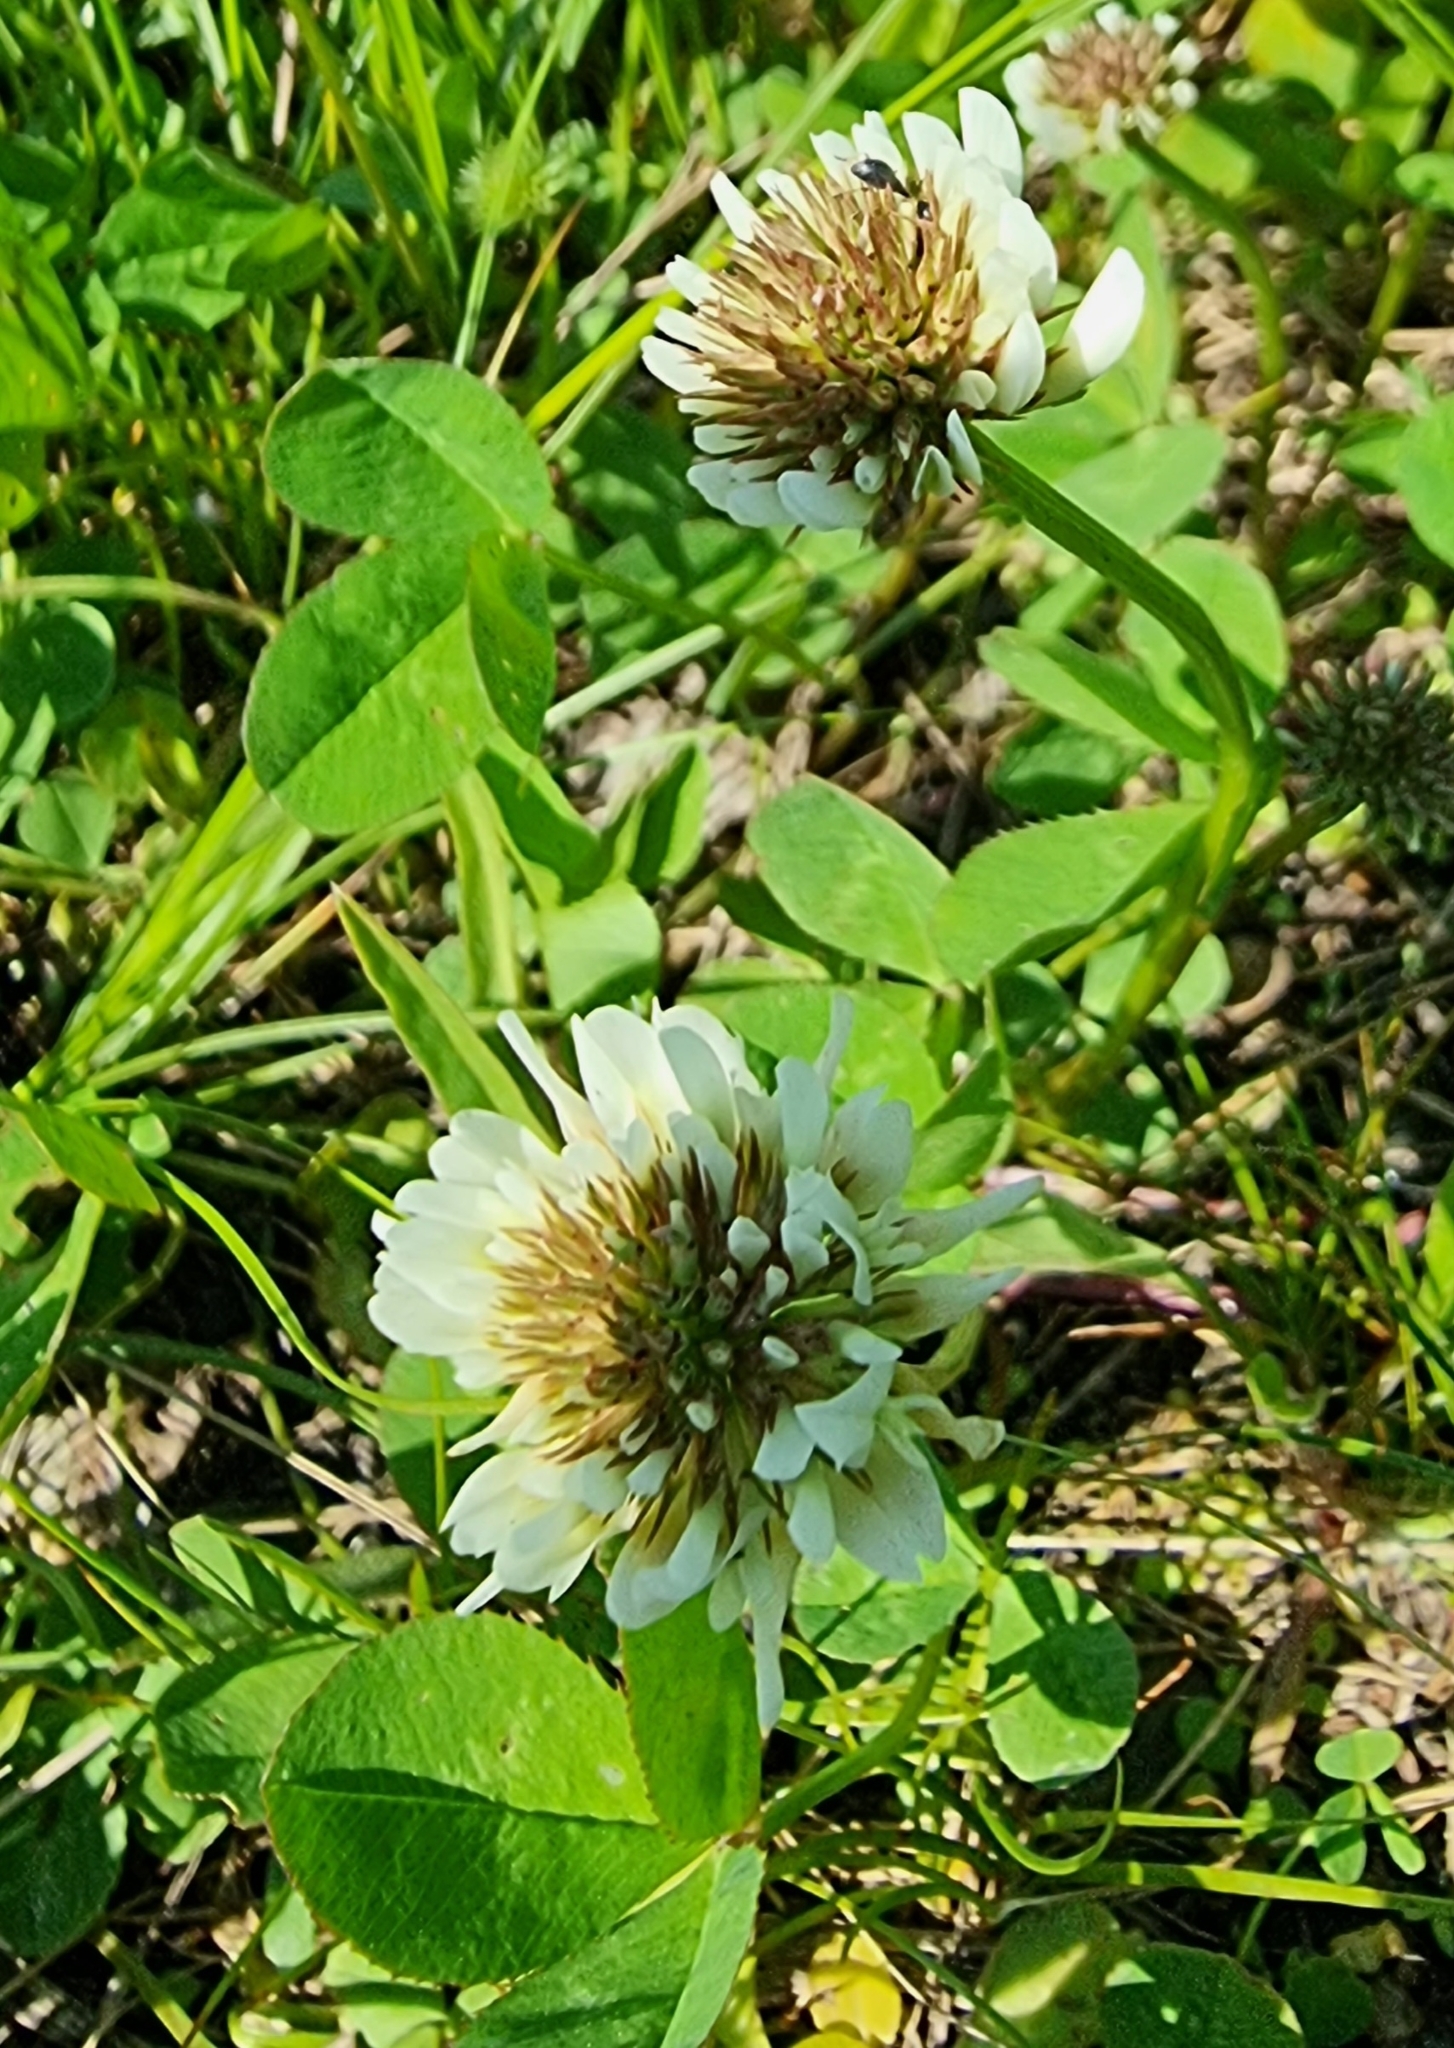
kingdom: Plantae
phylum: Tracheophyta
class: Magnoliopsida
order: Fabales
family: Fabaceae
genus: Trifolium
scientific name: Trifolium repens
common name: White clover
